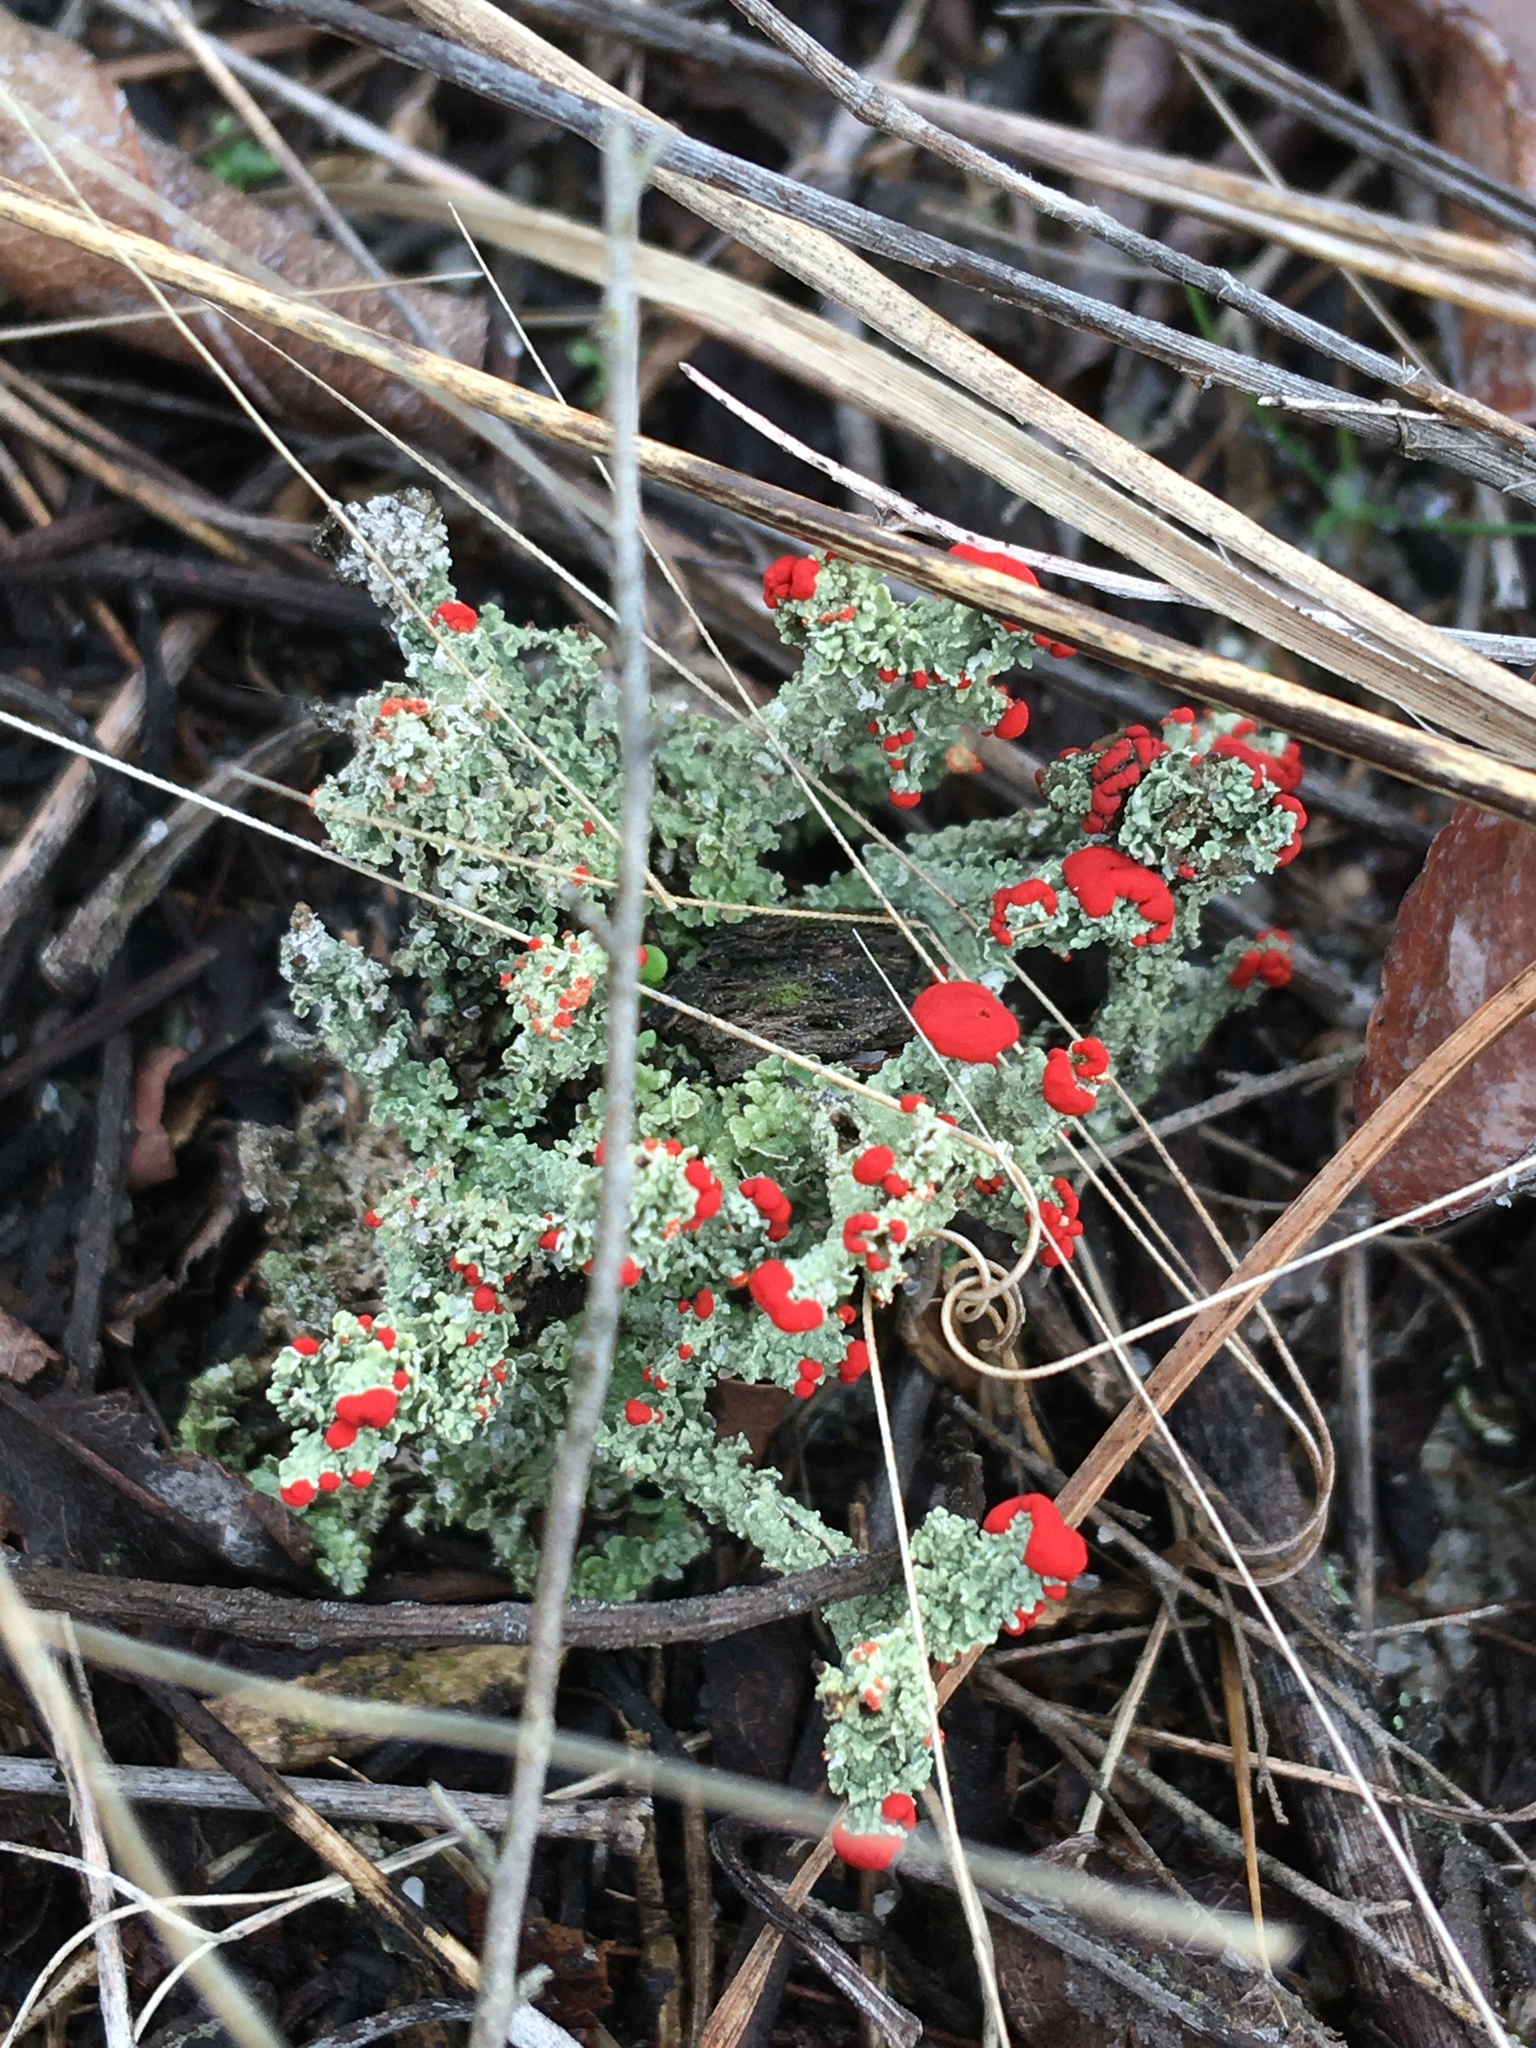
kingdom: Fungi
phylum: Ascomycota
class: Lecanoromycetes
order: Lecanorales
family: Cladoniaceae
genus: Cladonia
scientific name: Cladonia cristatella
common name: British soldier lichen
